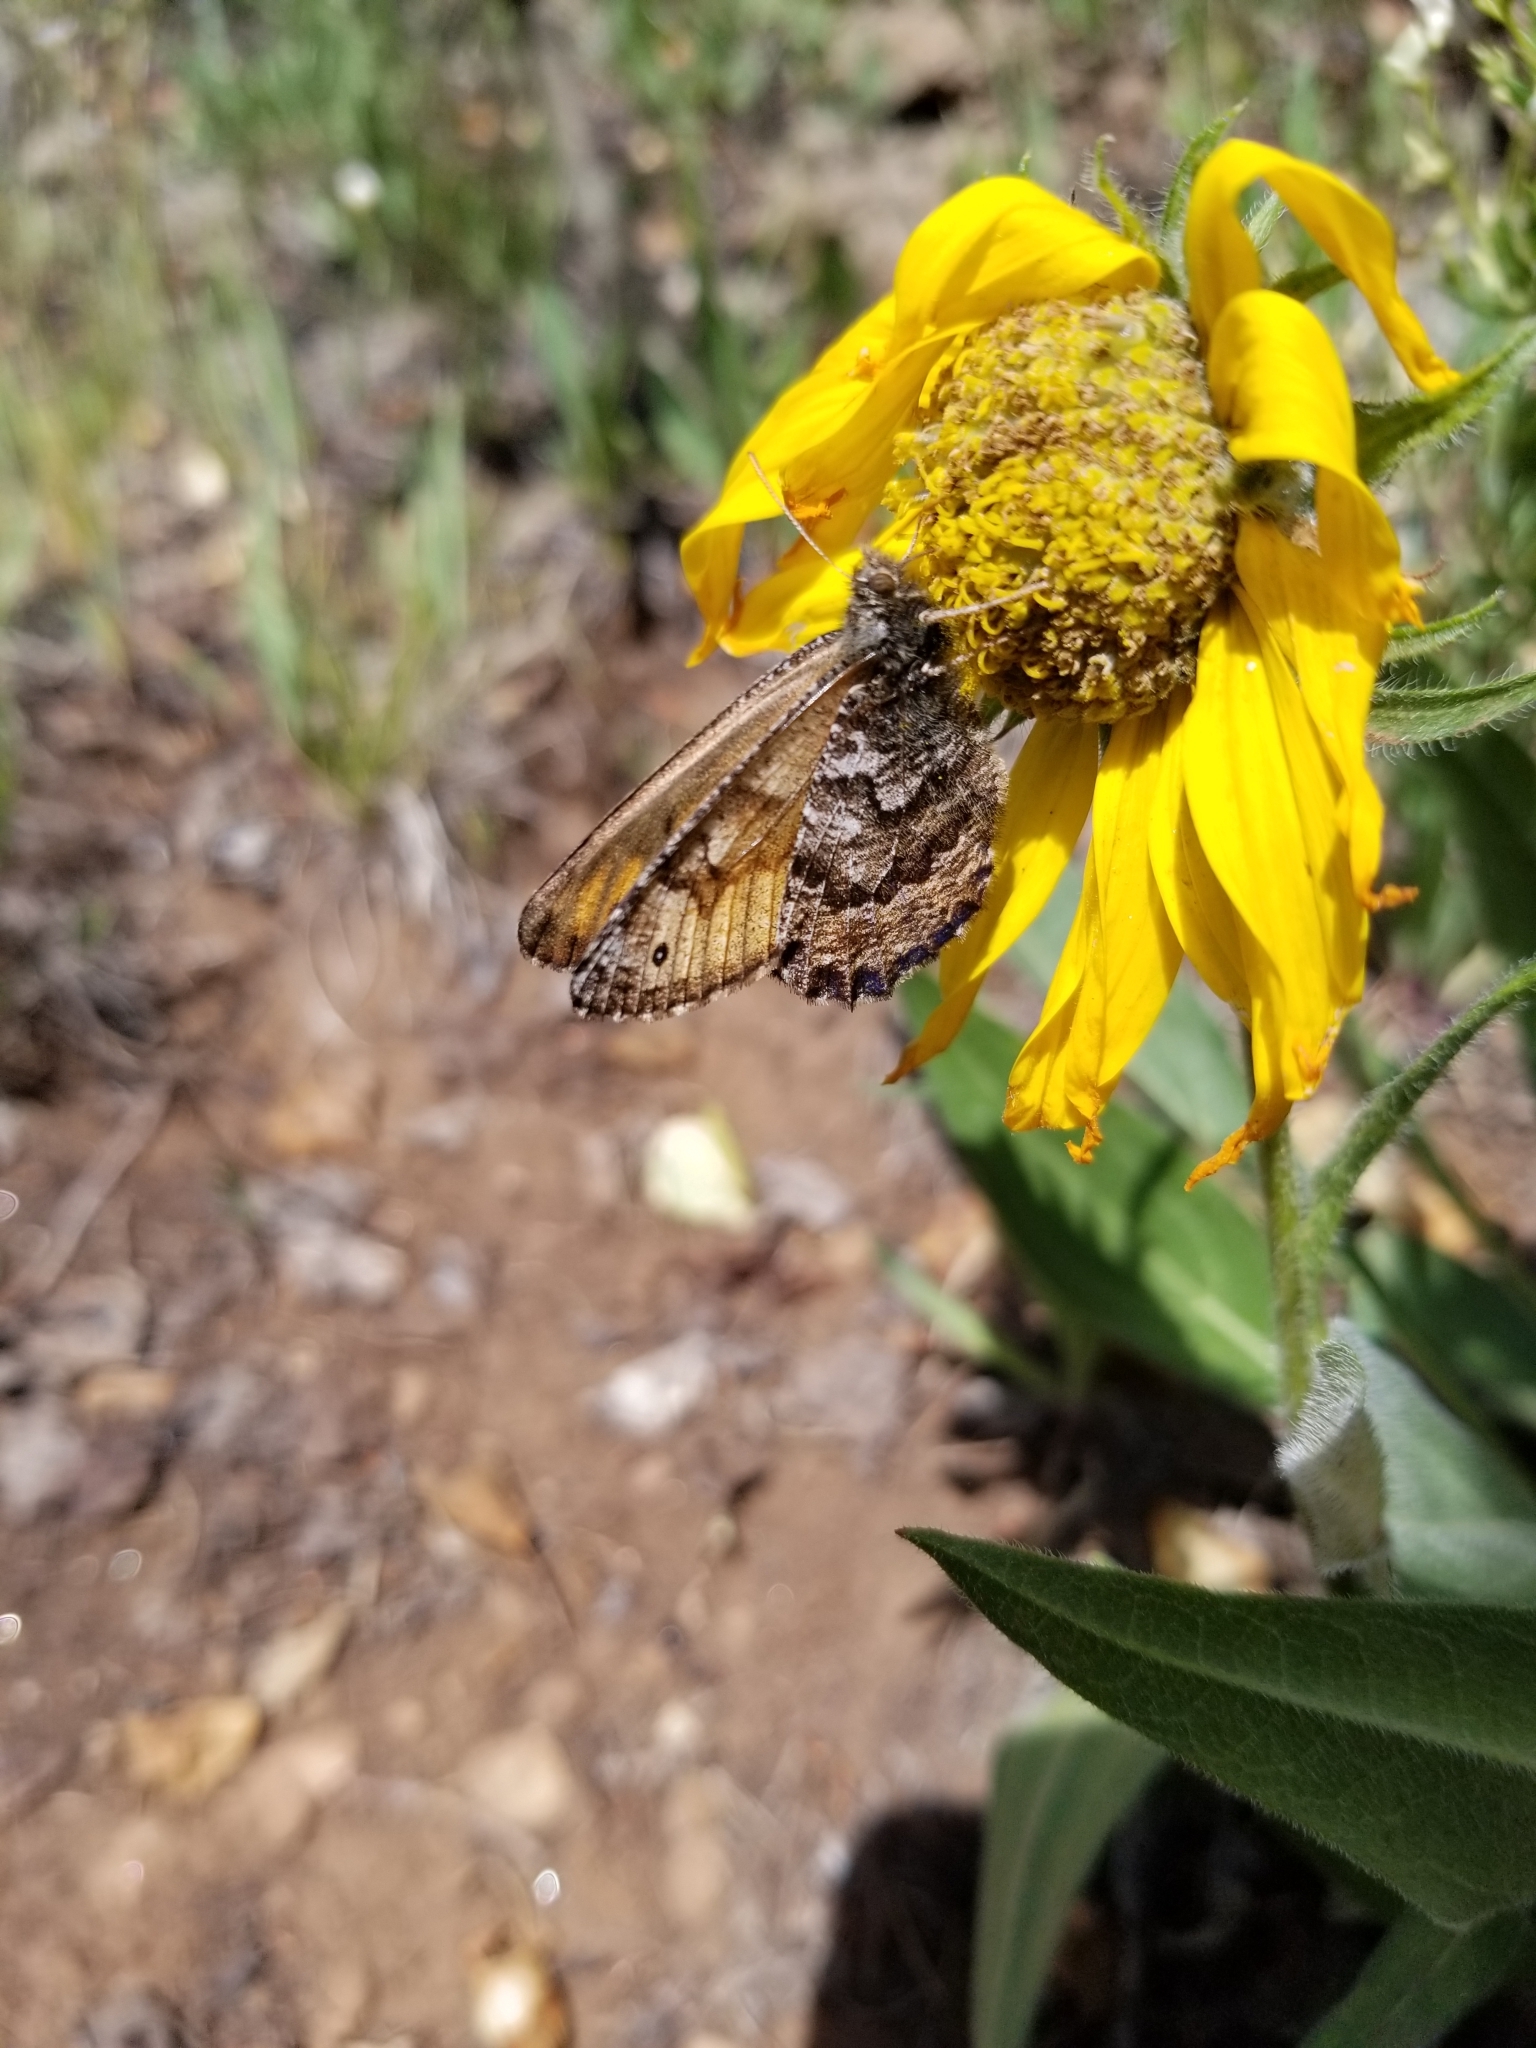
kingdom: Animalia
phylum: Arthropoda
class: Insecta
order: Lepidoptera
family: Nymphalidae
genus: Oeneis
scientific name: Oeneis chryxus
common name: Chryxus arctic
